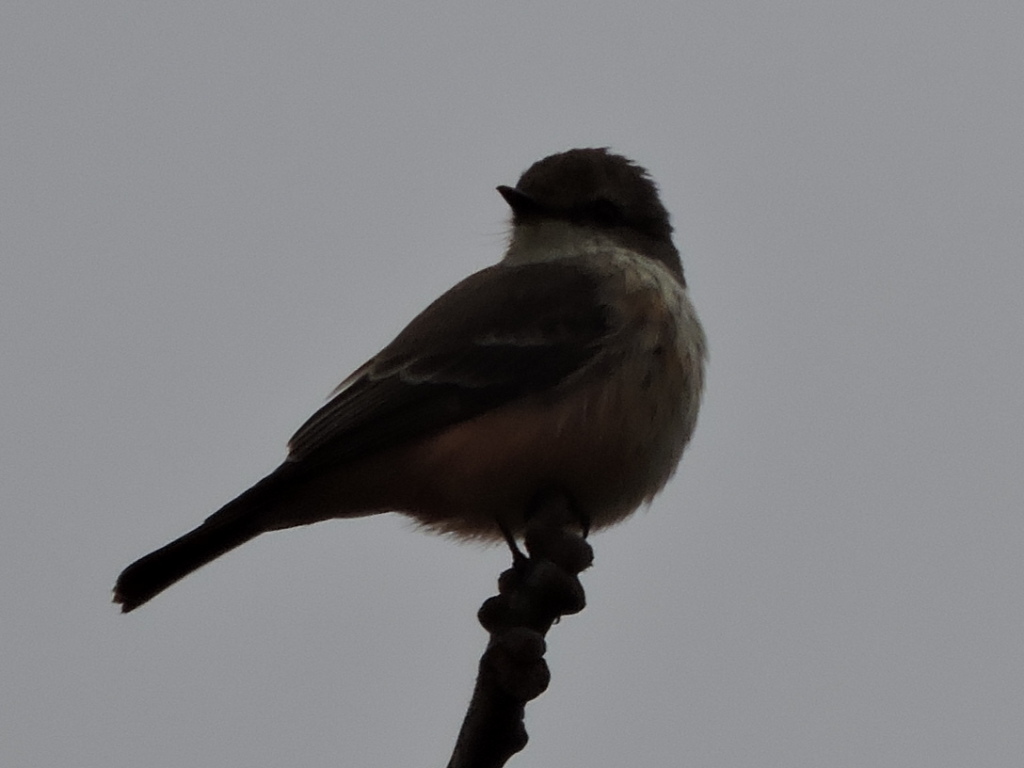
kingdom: Animalia
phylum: Chordata
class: Aves
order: Passeriformes
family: Tyrannidae
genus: Pyrocephalus
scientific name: Pyrocephalus rubinus
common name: Vermilion flycatcher
